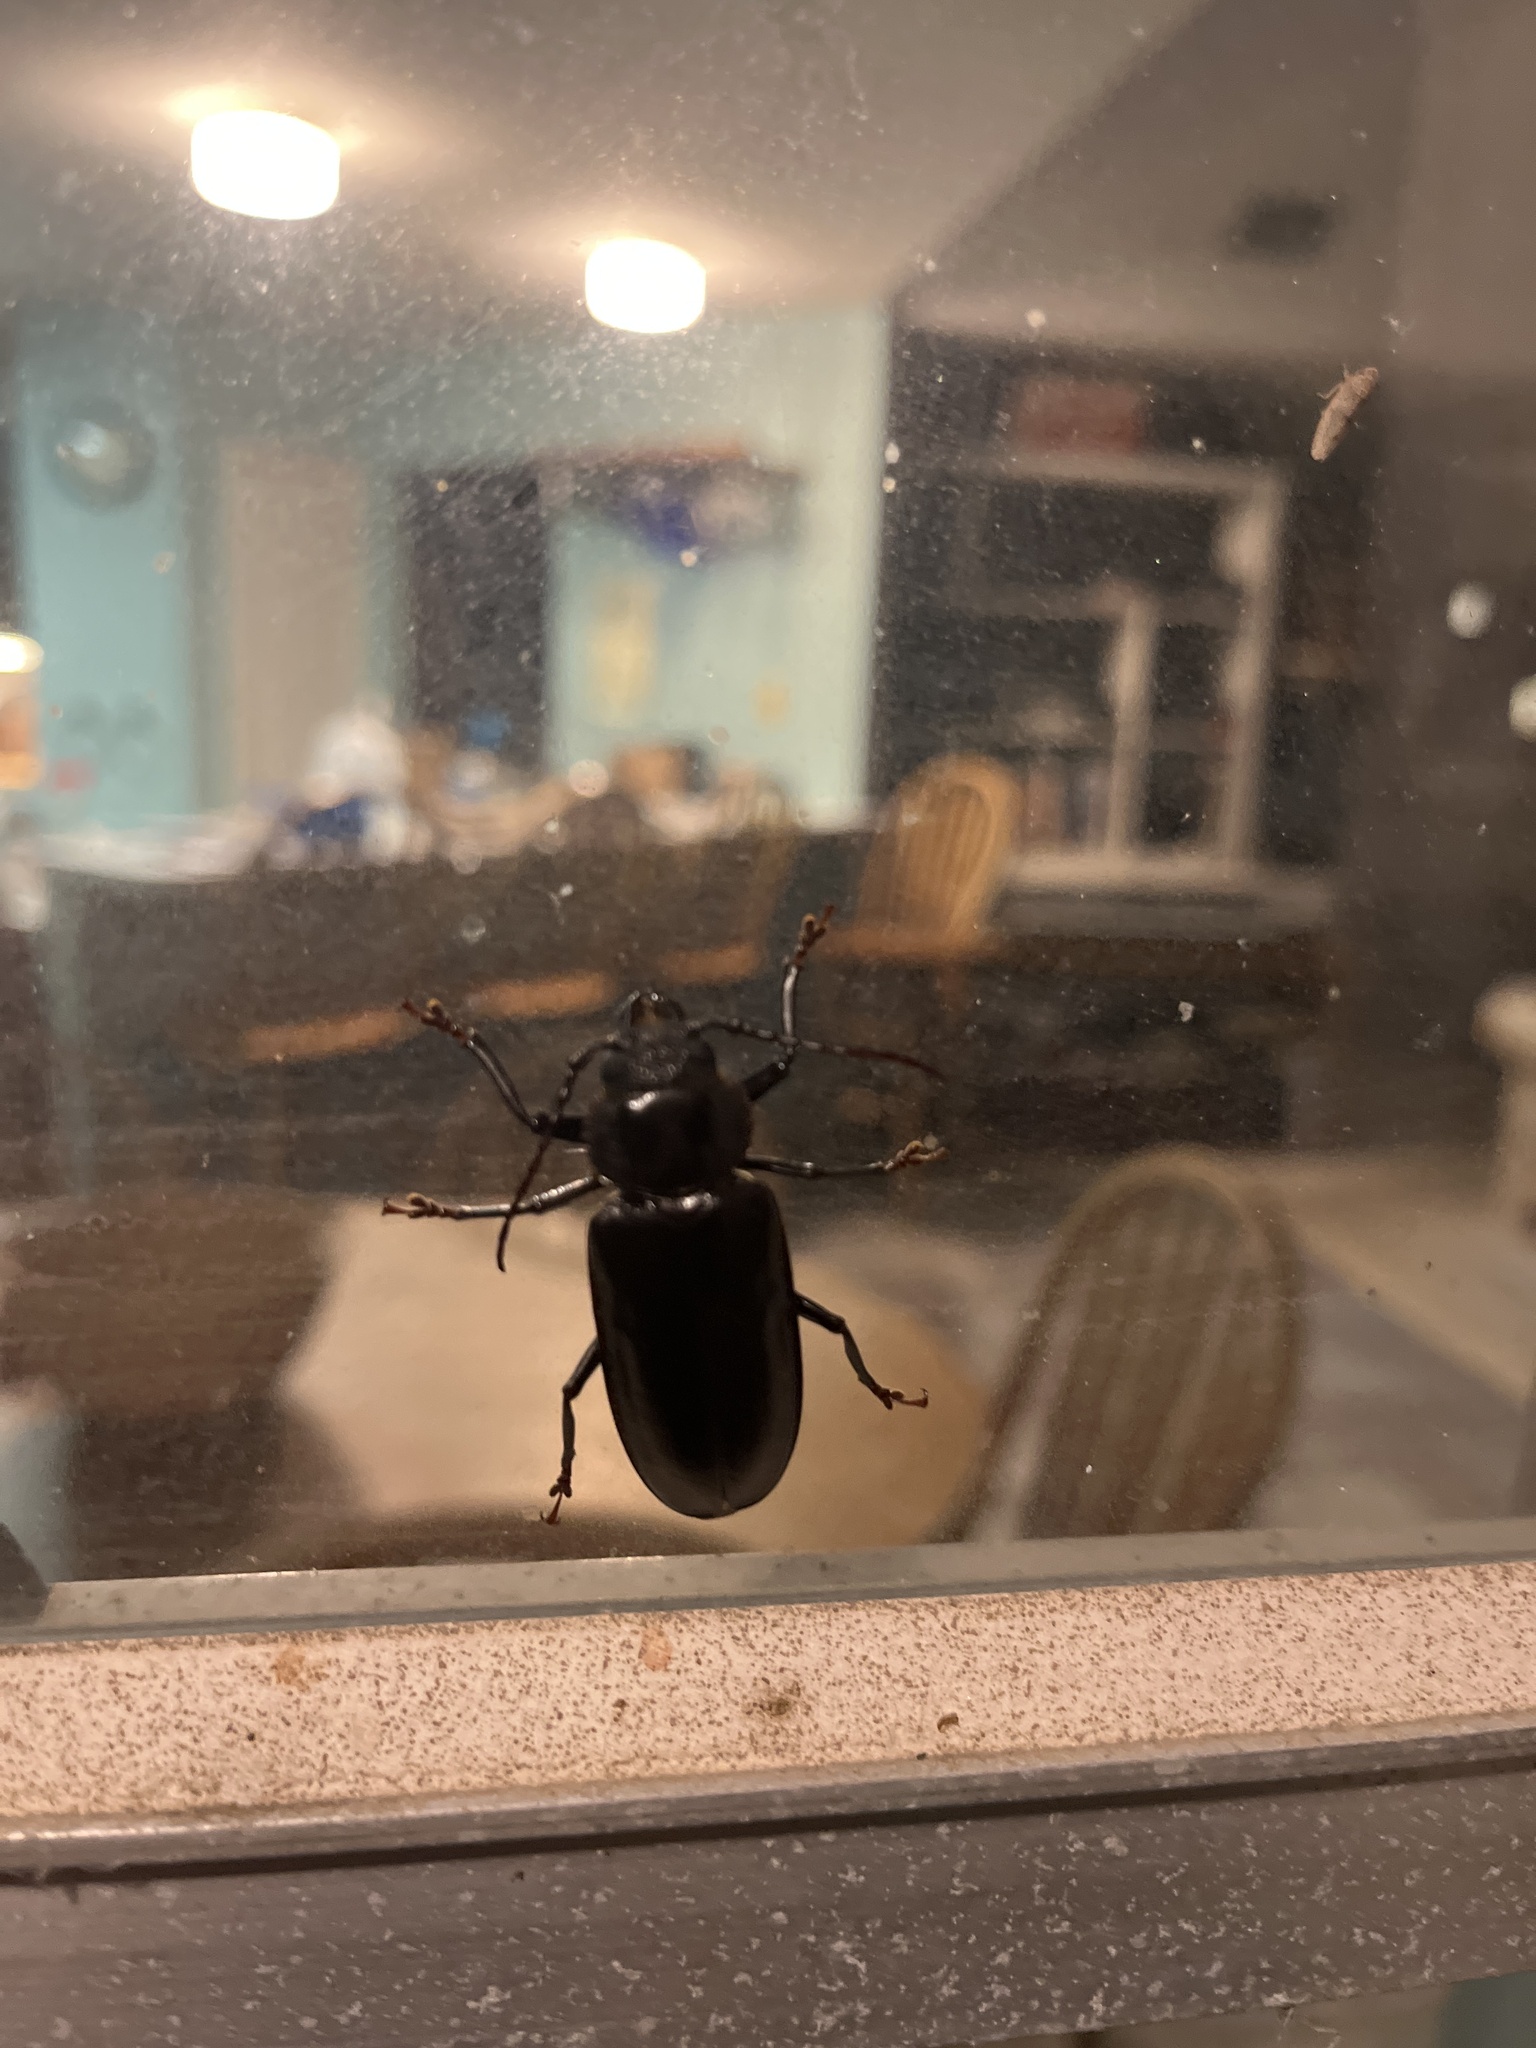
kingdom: Animalia
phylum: Arthropoda
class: Insecta
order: Coleoptera
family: Cerambycidae
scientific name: Cerambycidae
